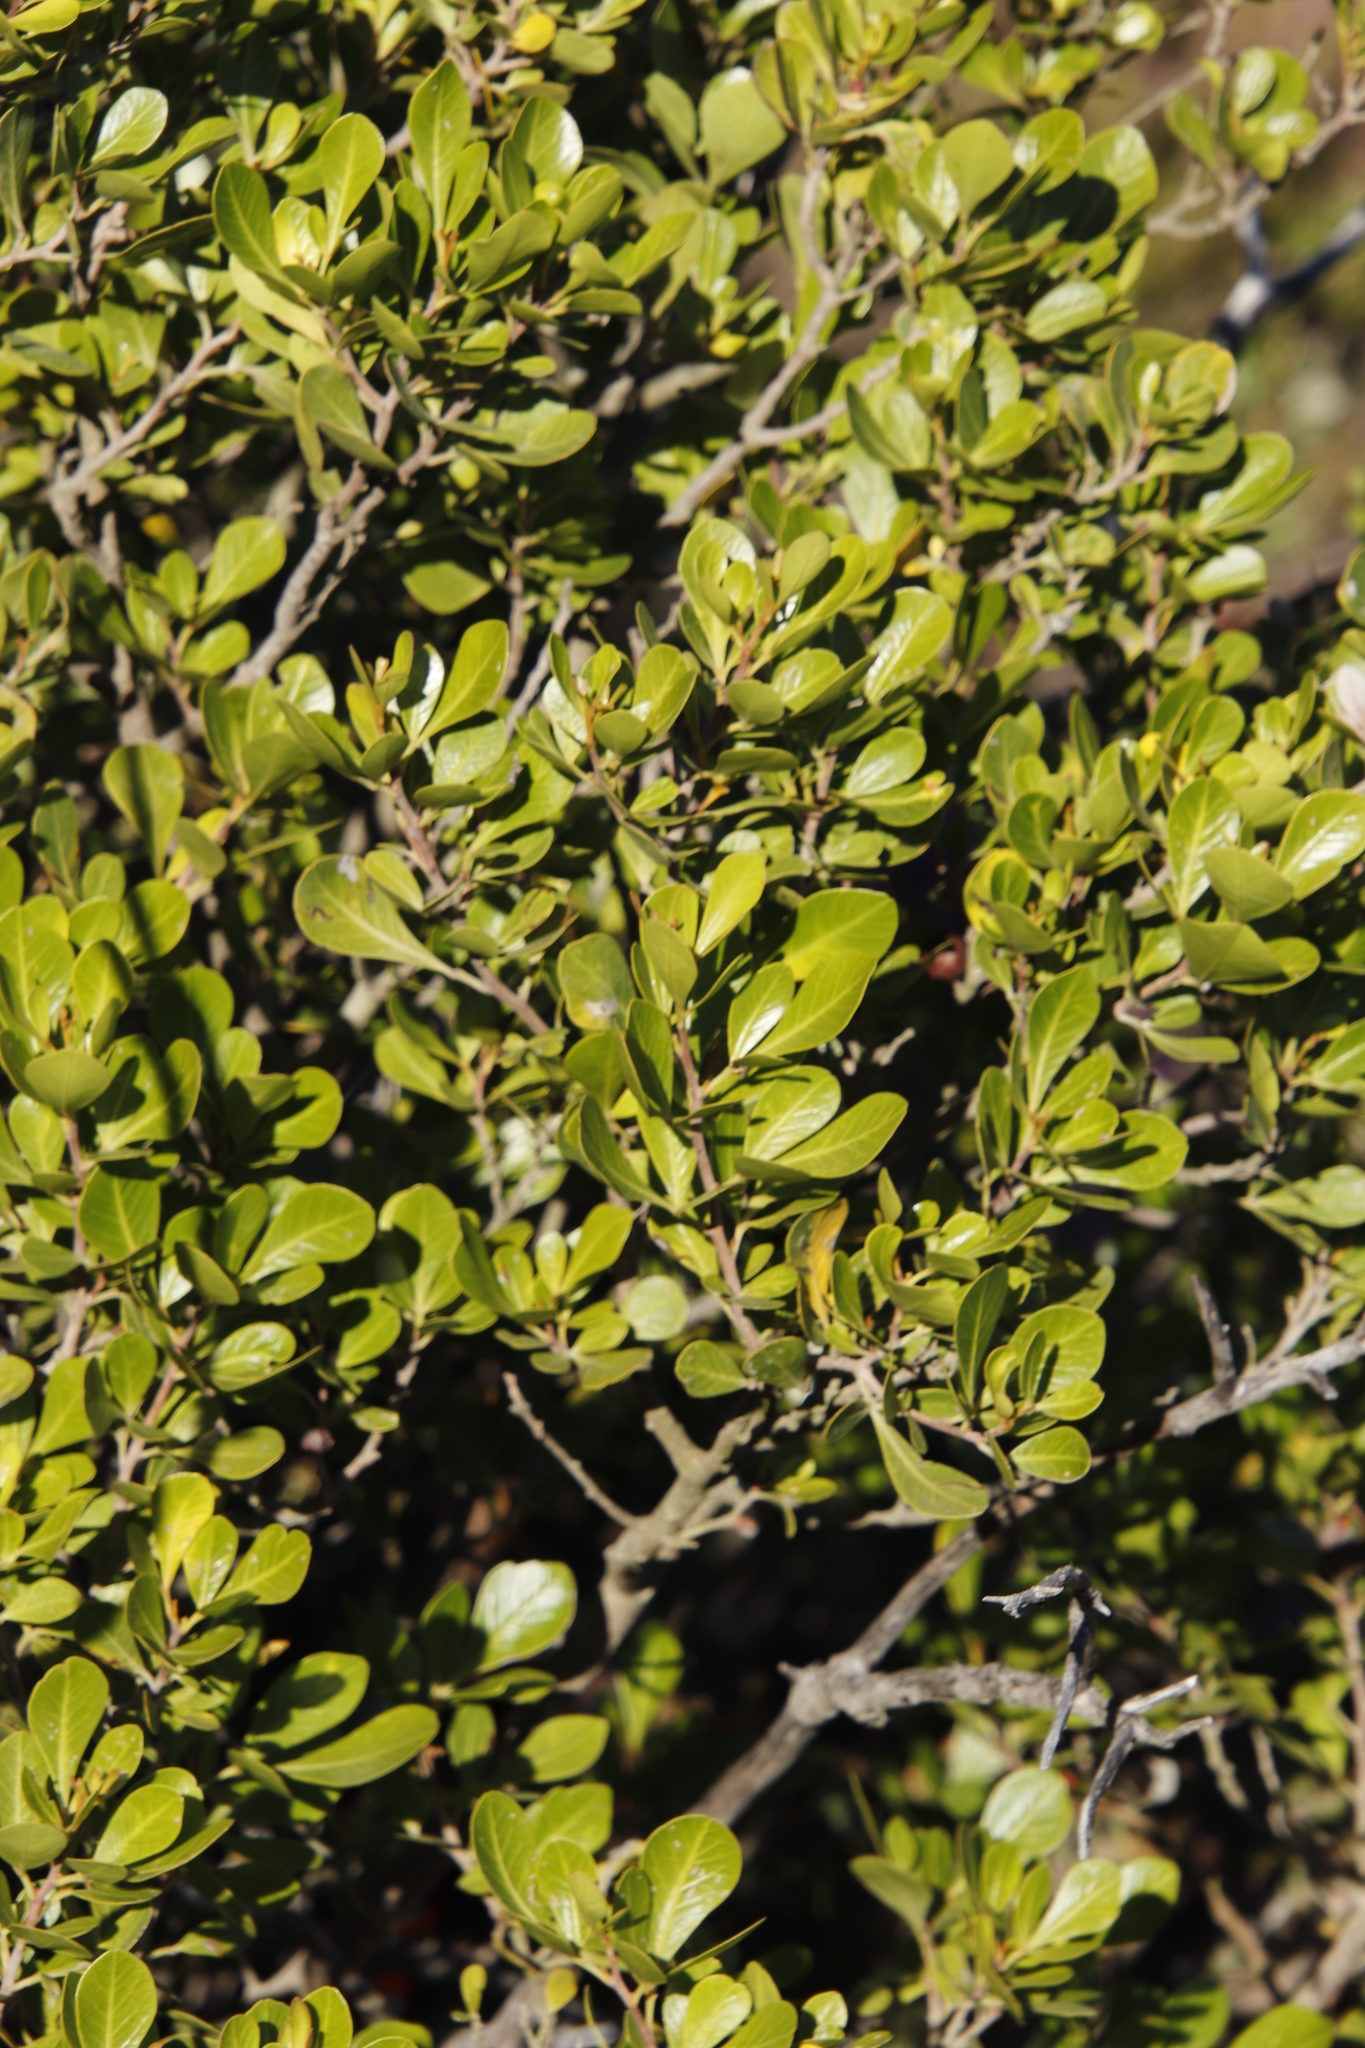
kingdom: Plantae
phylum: Tracheophyta
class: Magnoliopsida
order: Sapindales
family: Anacardiaceae
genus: Searsia
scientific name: Searsia lucida
